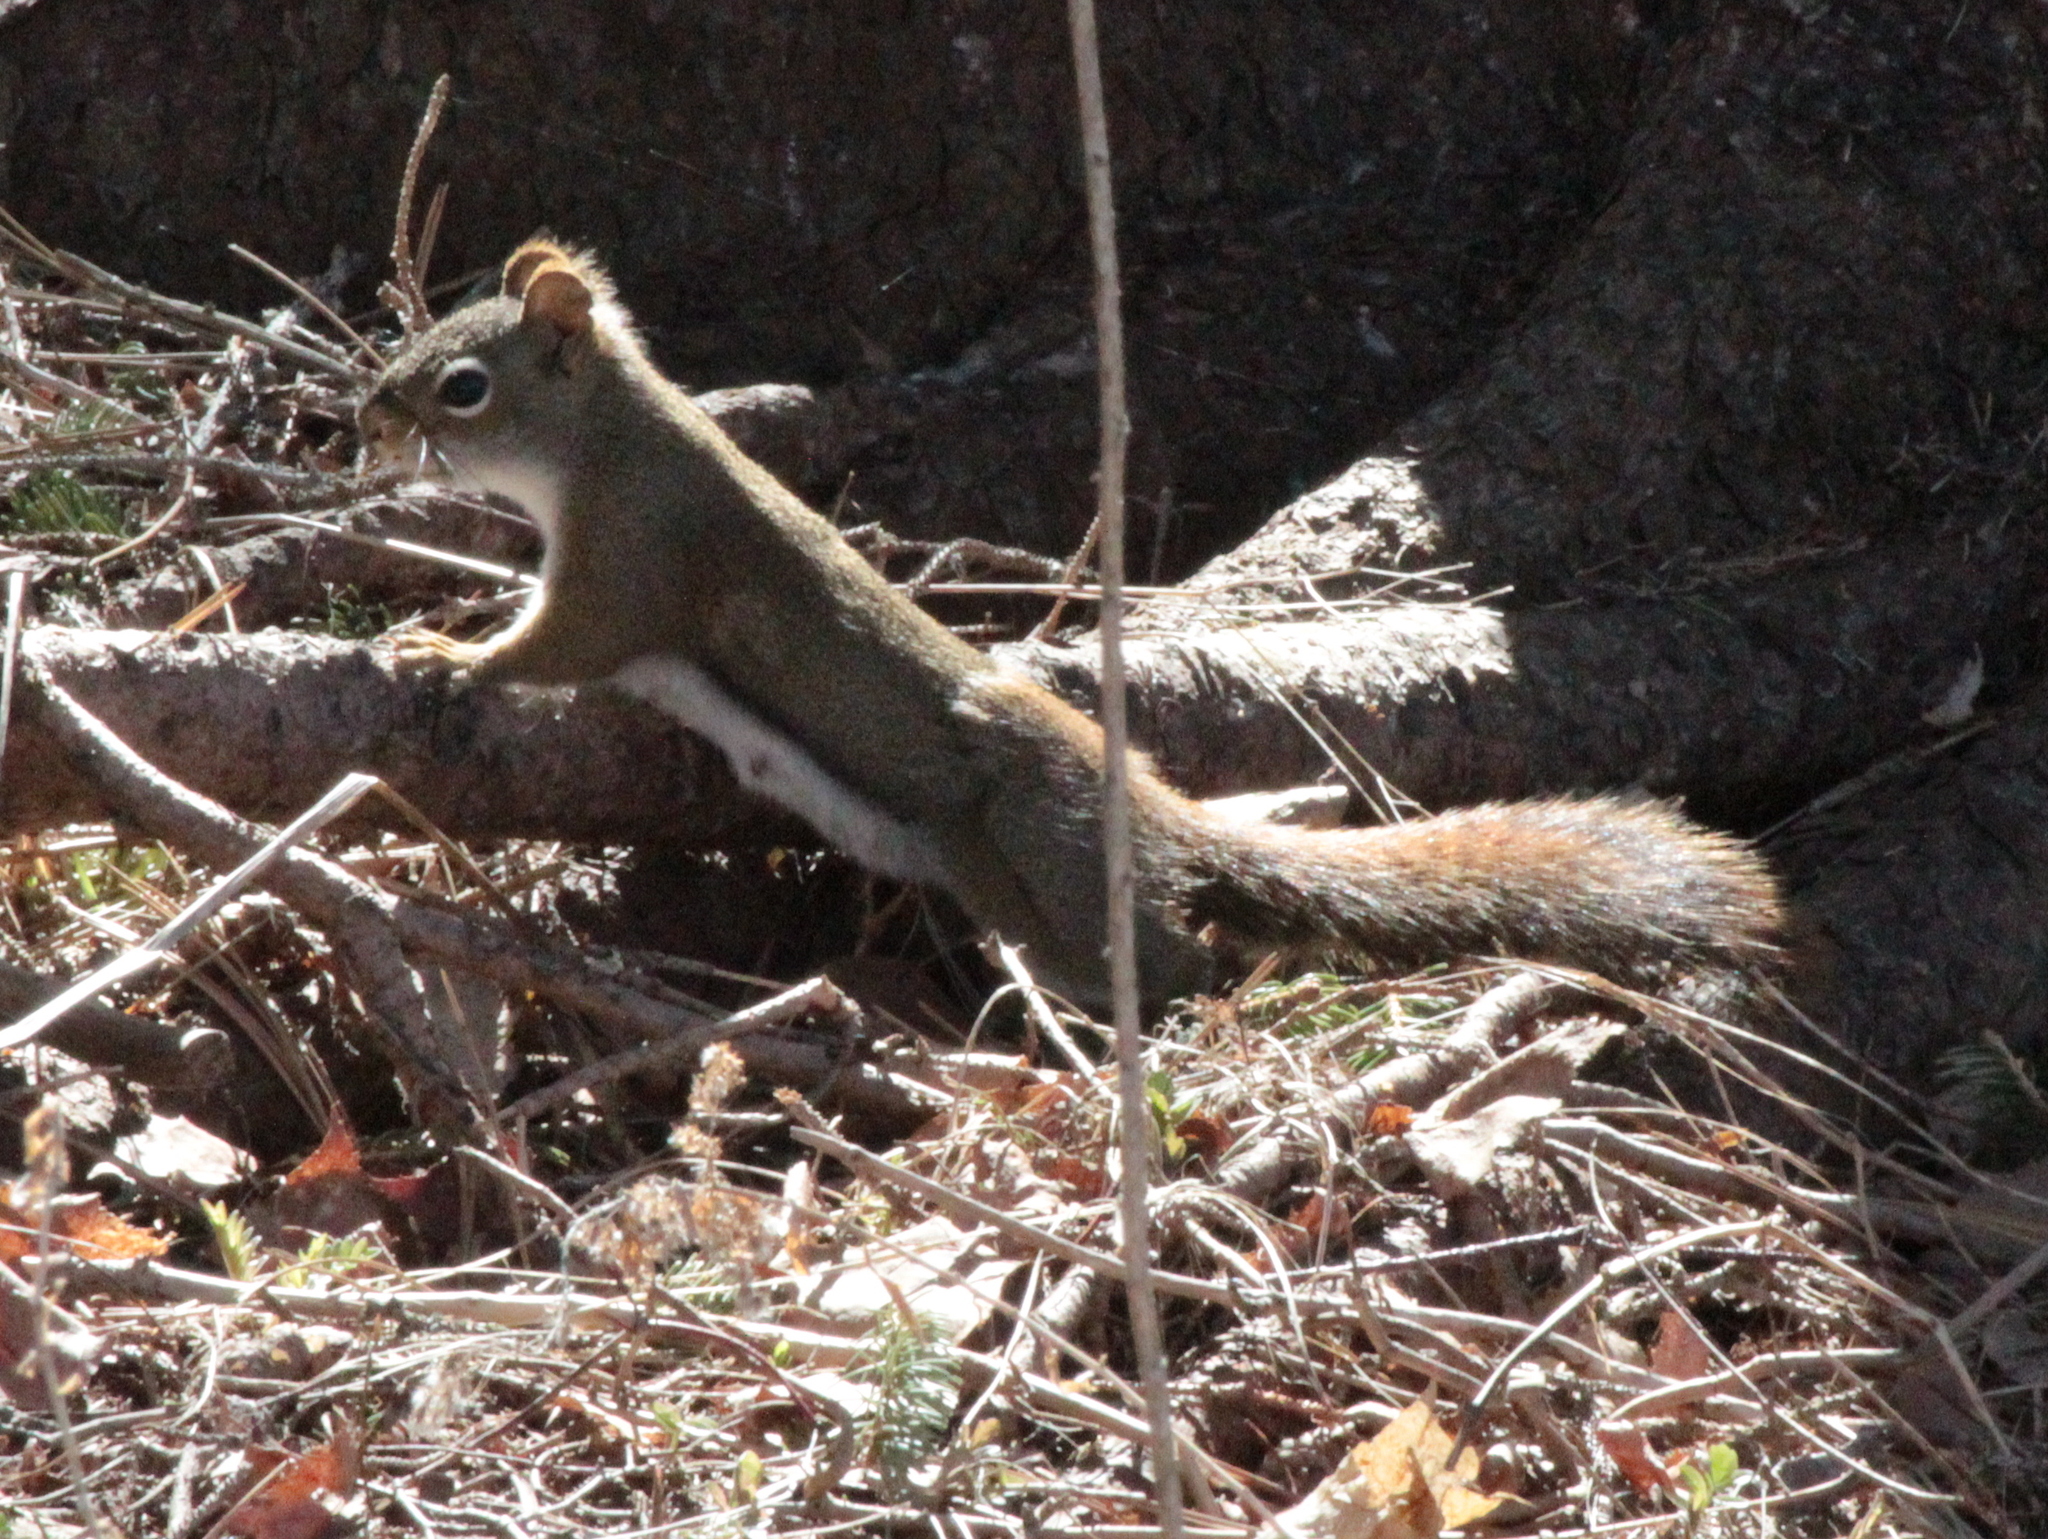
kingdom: Animalia
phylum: Chordata
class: Mammalia
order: Rodentia
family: Sciuridae
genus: Tamiasciurus
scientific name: Tamiasciurus hudsonicus
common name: Red squirrel
